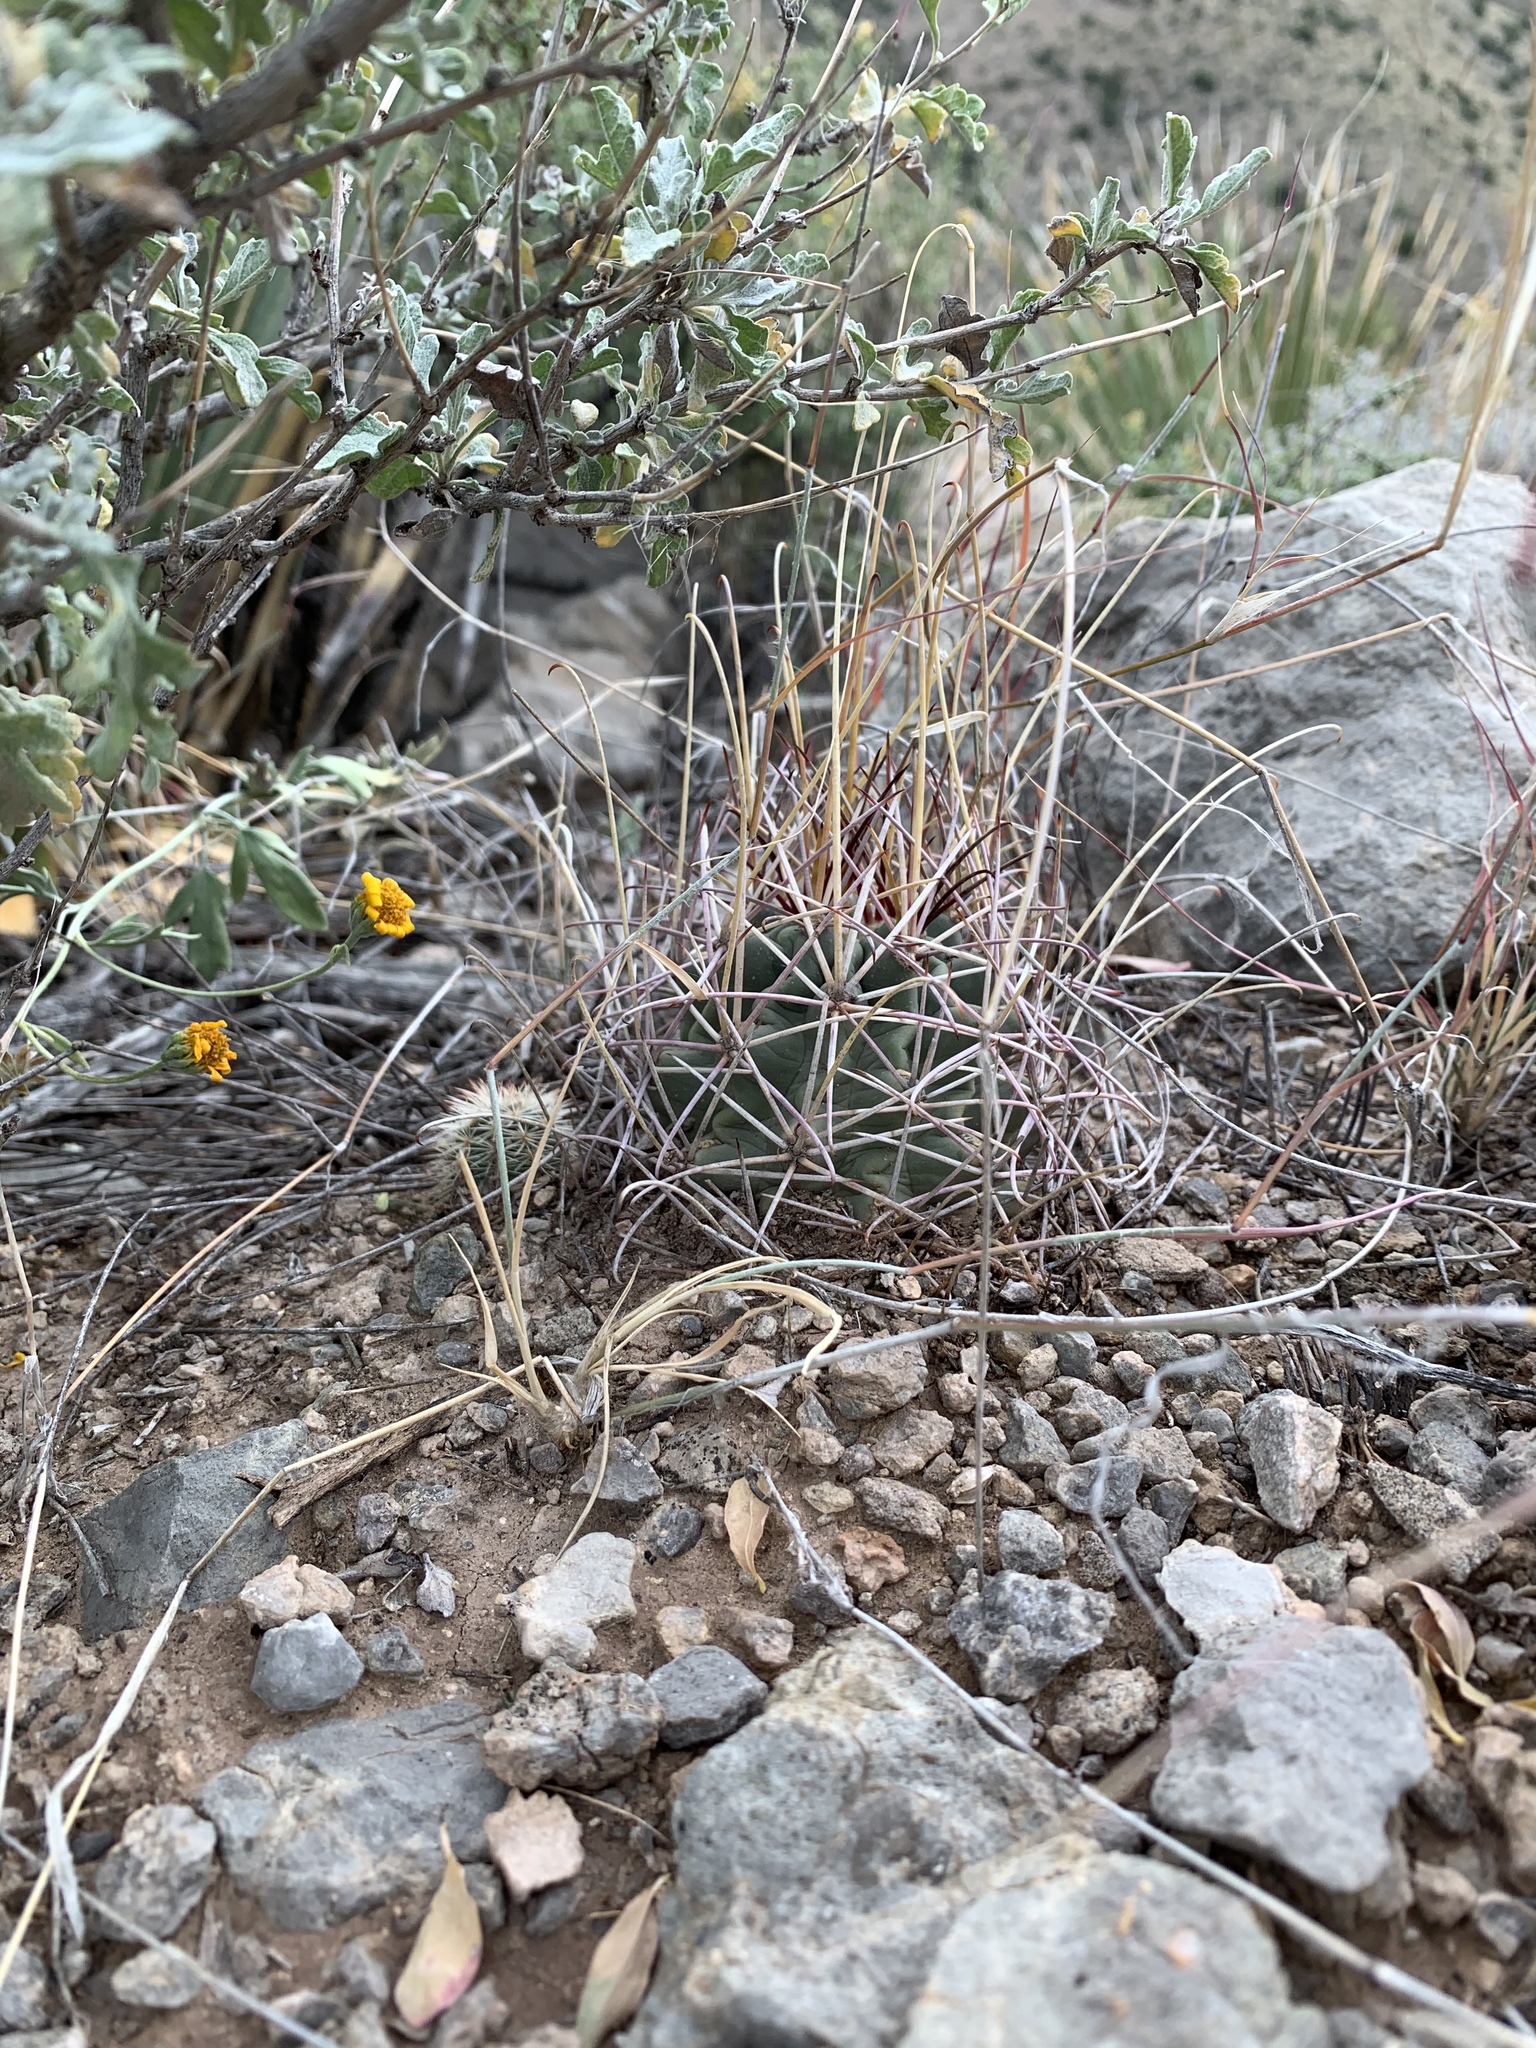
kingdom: Plantae
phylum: Tracheophyta
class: Magnoliopsida
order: Caryophyllales
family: Cactaceae
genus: Ferocactus
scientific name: Ferocactus uncinatus
